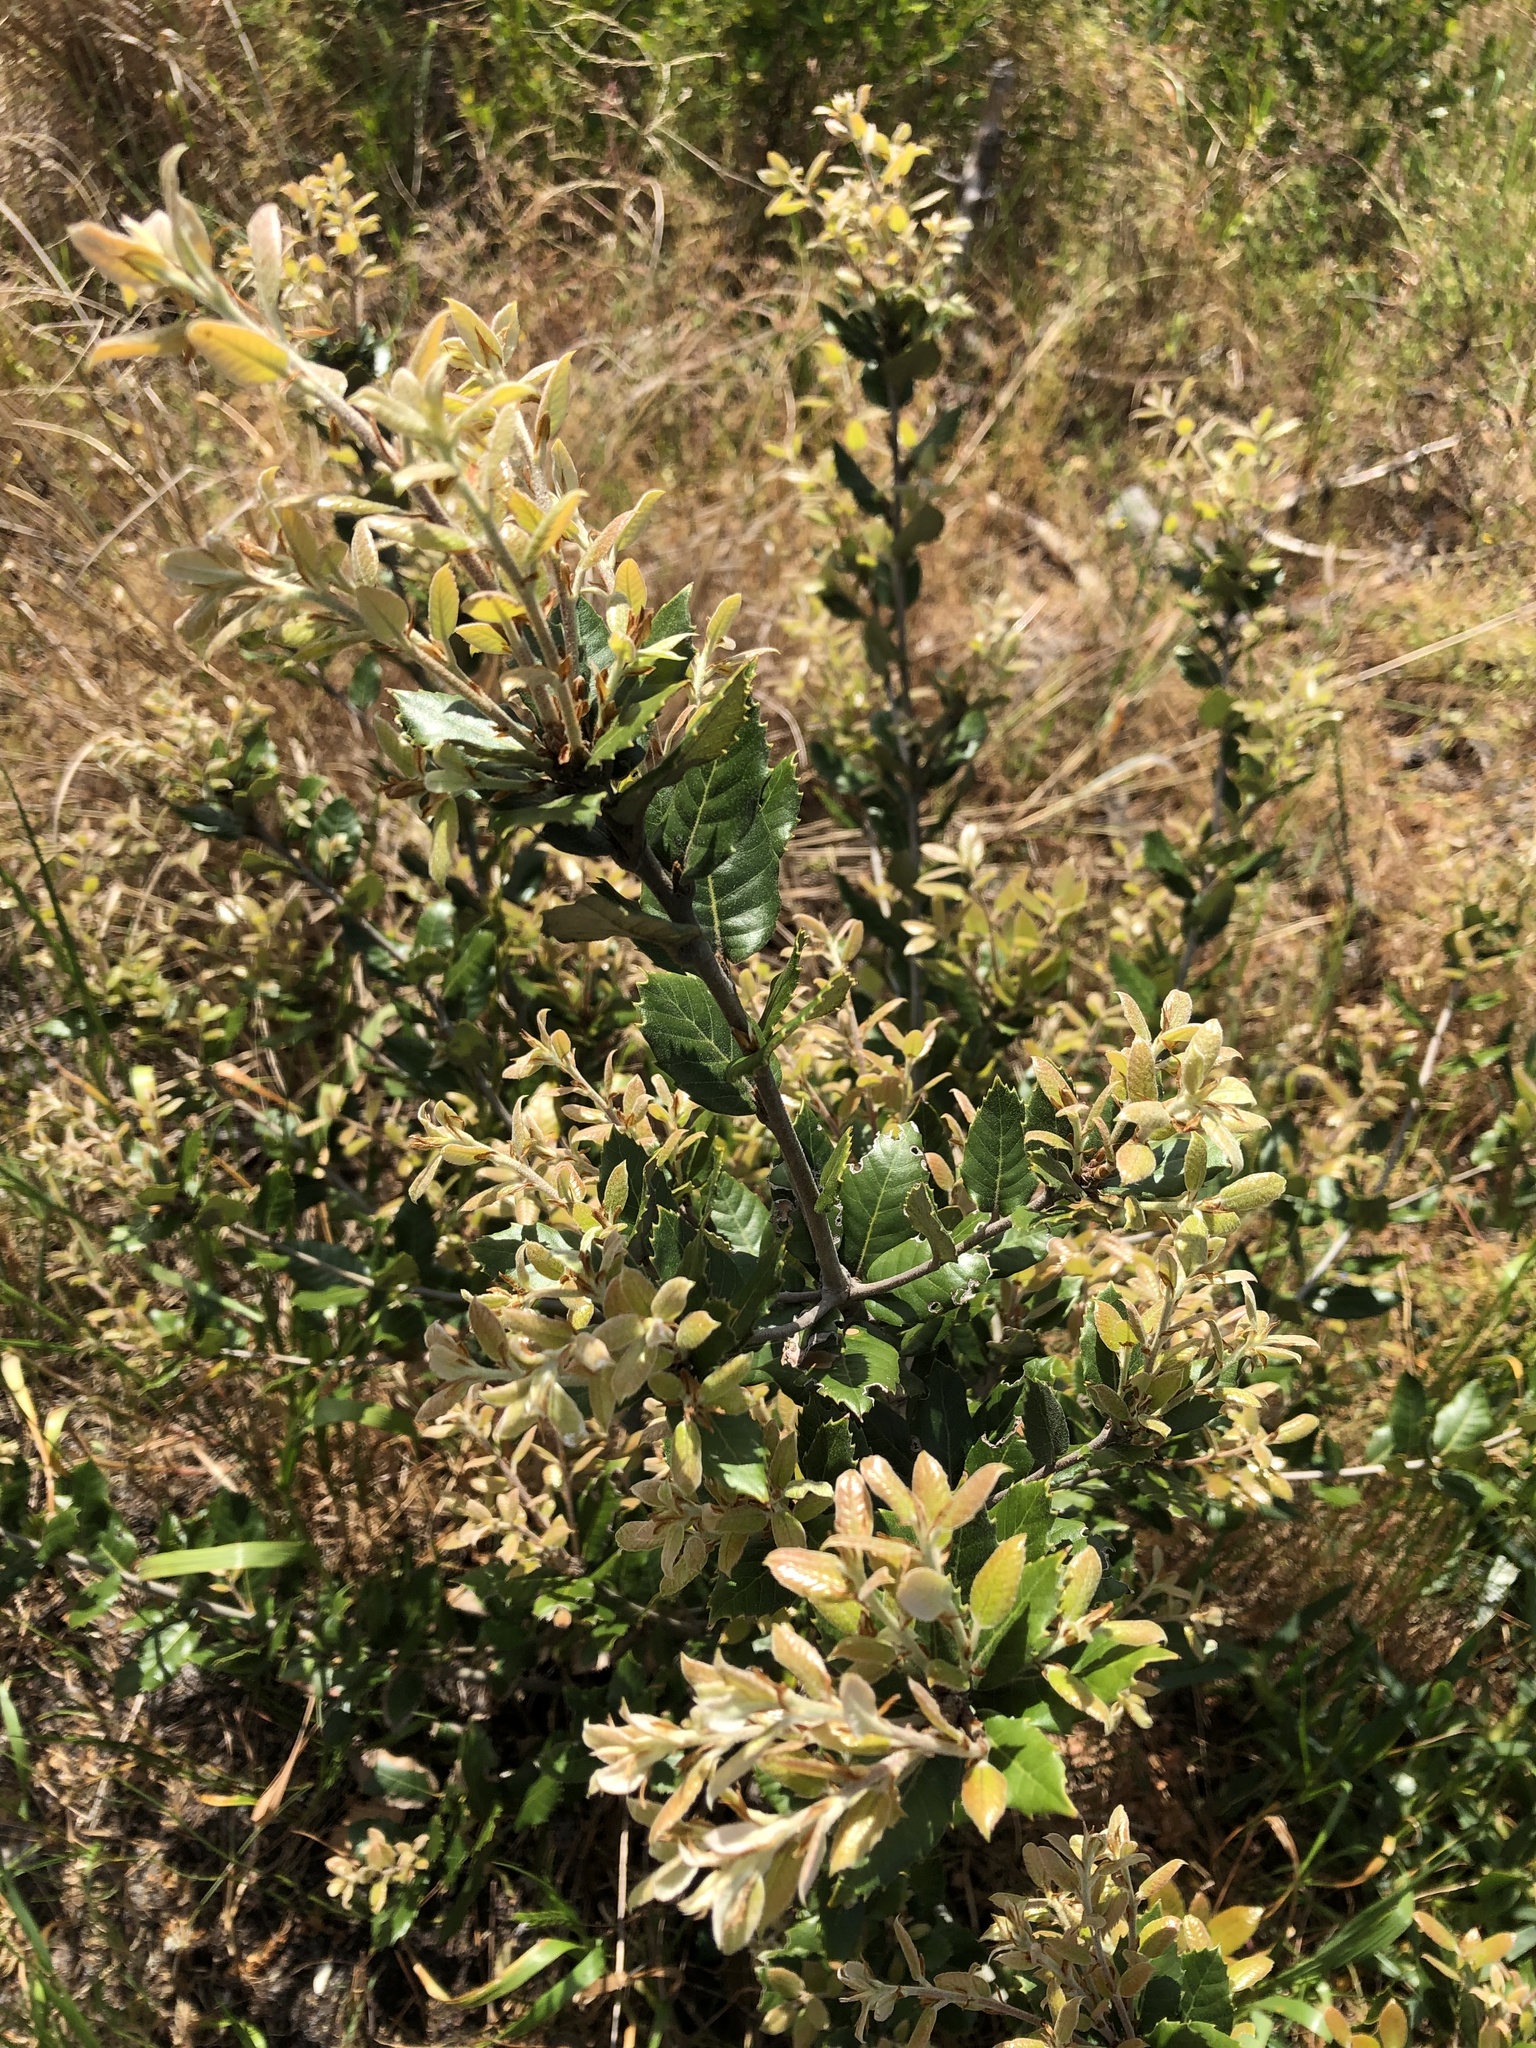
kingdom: Plantae
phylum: Tracheophyta
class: Magnoliopsida
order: Fagales
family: Fagaceae
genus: Quercus
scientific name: Quercus ilex
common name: Evergreen oak
